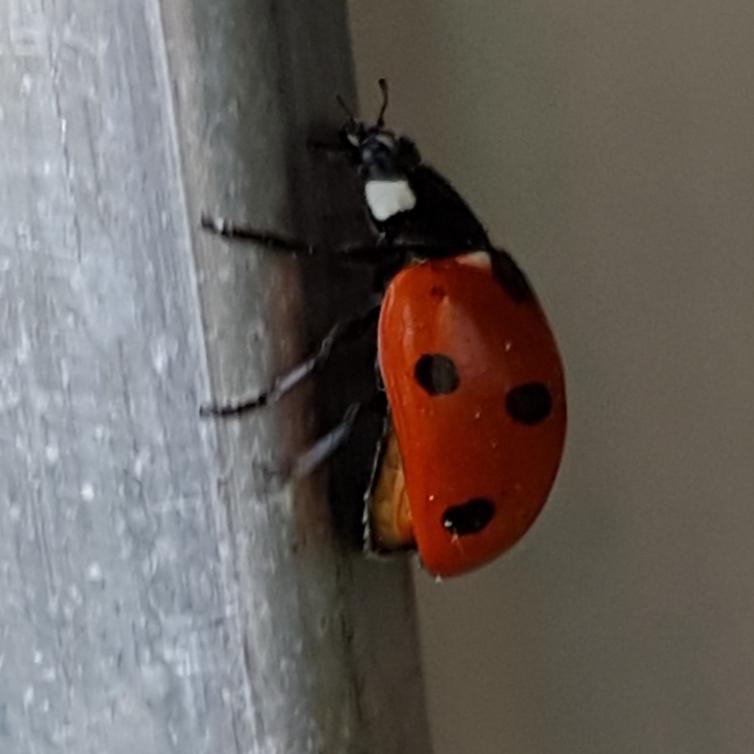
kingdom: Animalia
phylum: Arthropoda
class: Insecta
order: Coleoptera
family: Coccinellidae
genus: Coccinella
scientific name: Coccinella septempunctata
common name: Sevenspotted lady beetle
